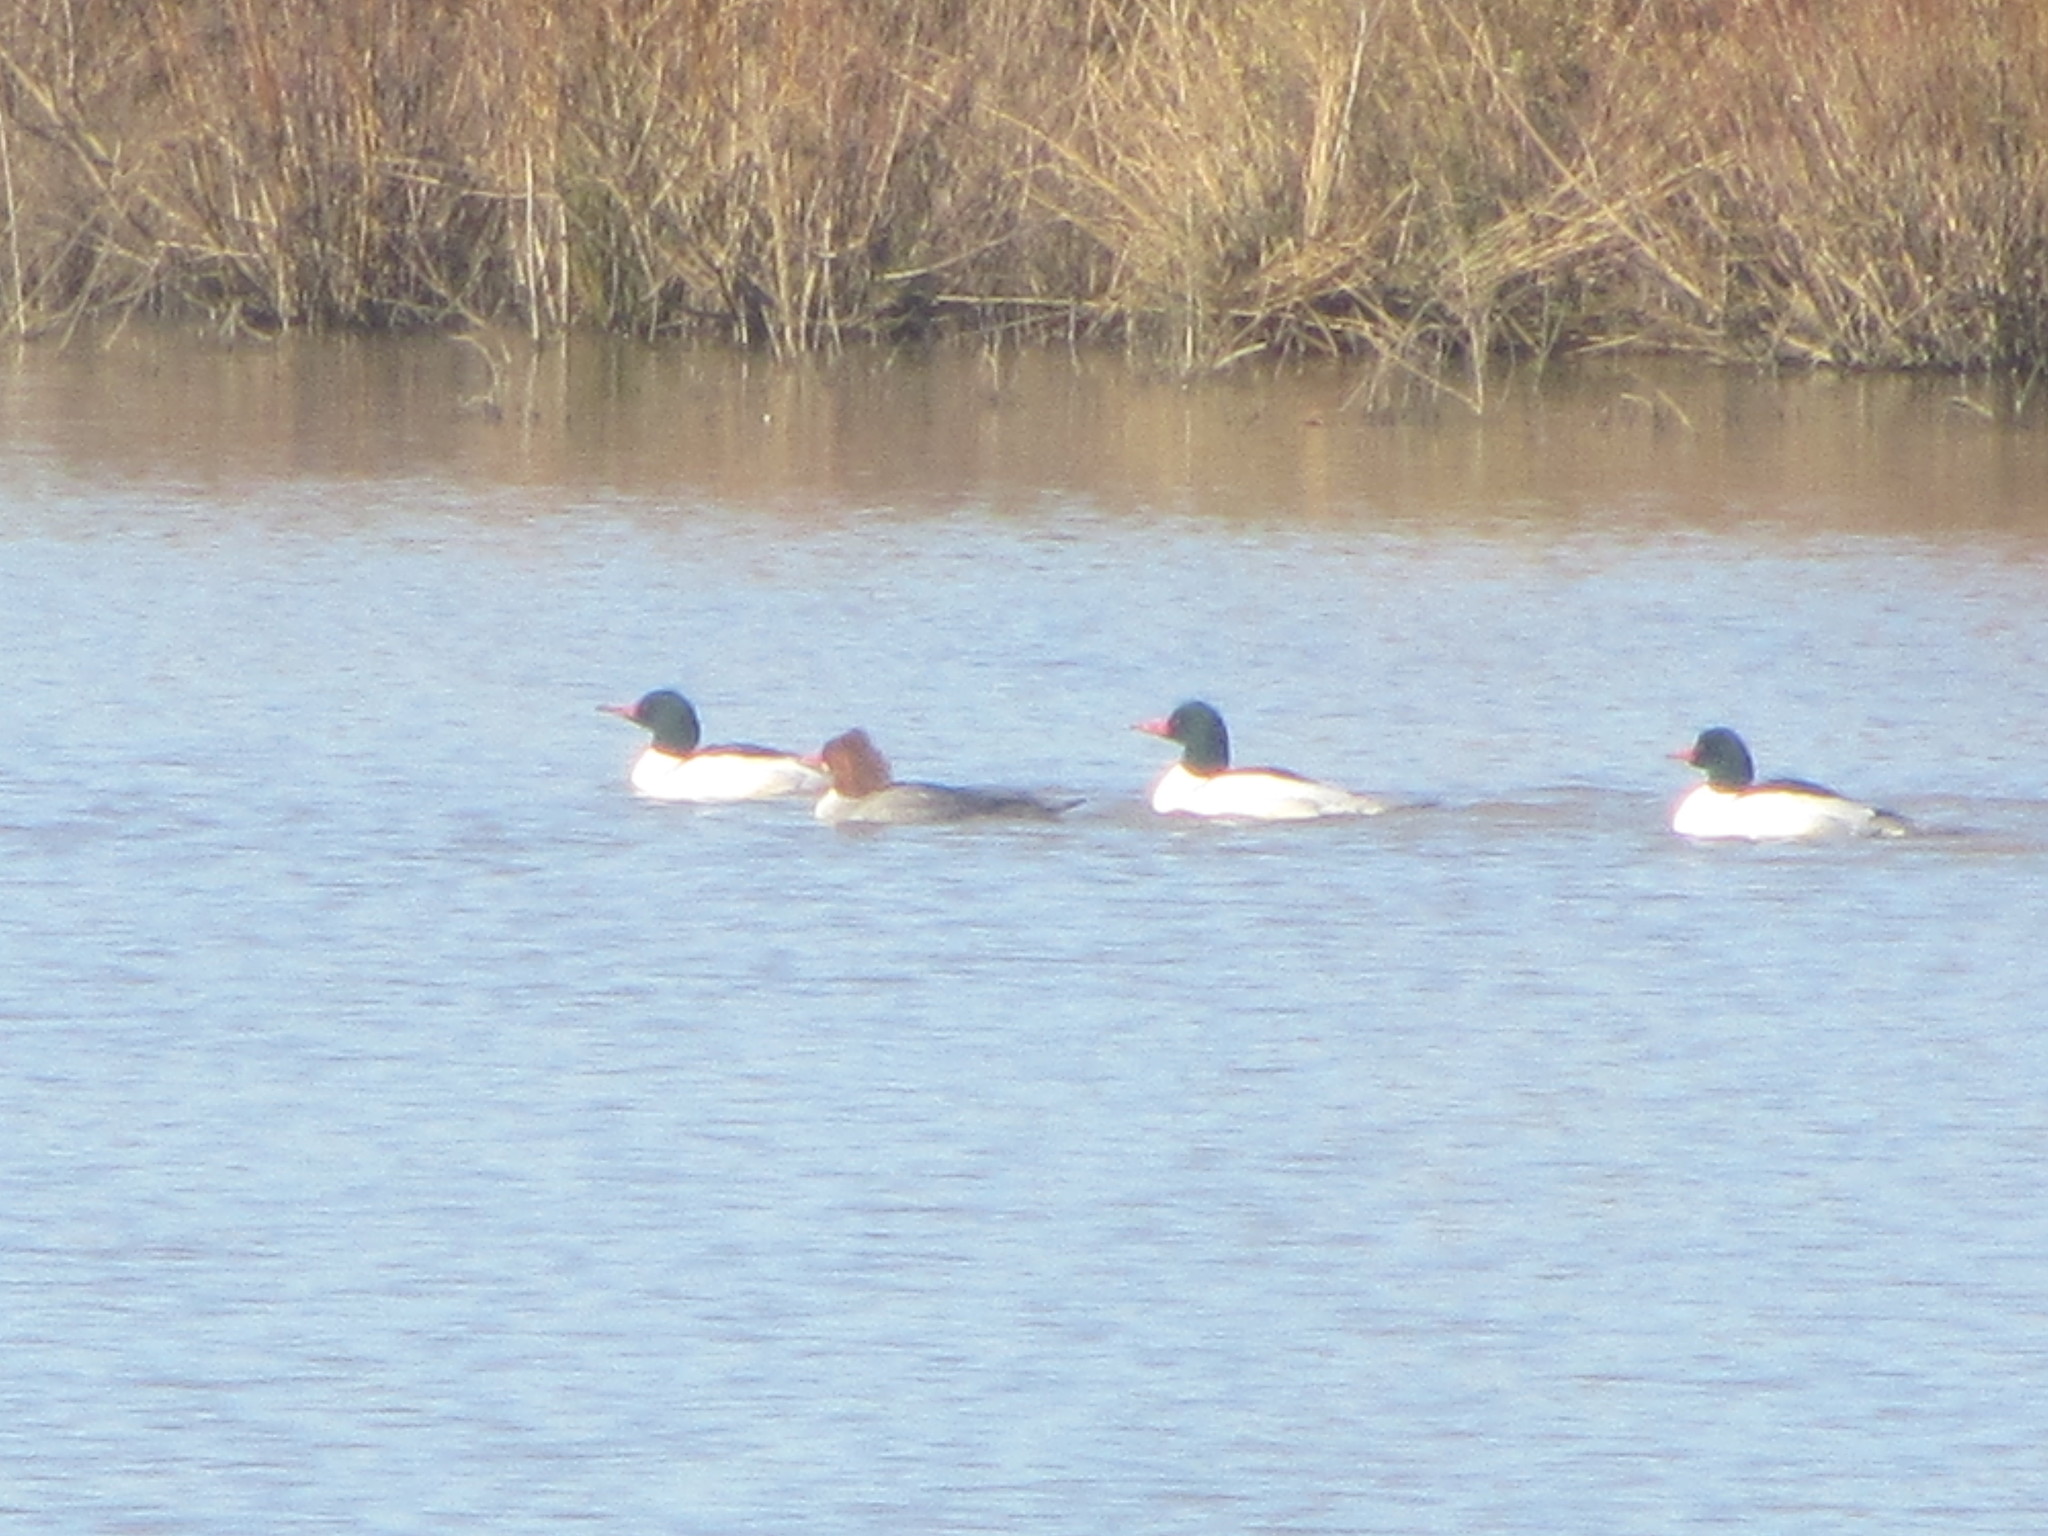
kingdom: Animalia
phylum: Chordata
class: Aves
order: Anseriformes
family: Anatidae
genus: Mergus
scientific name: Mergus merganser
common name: Common merganser
